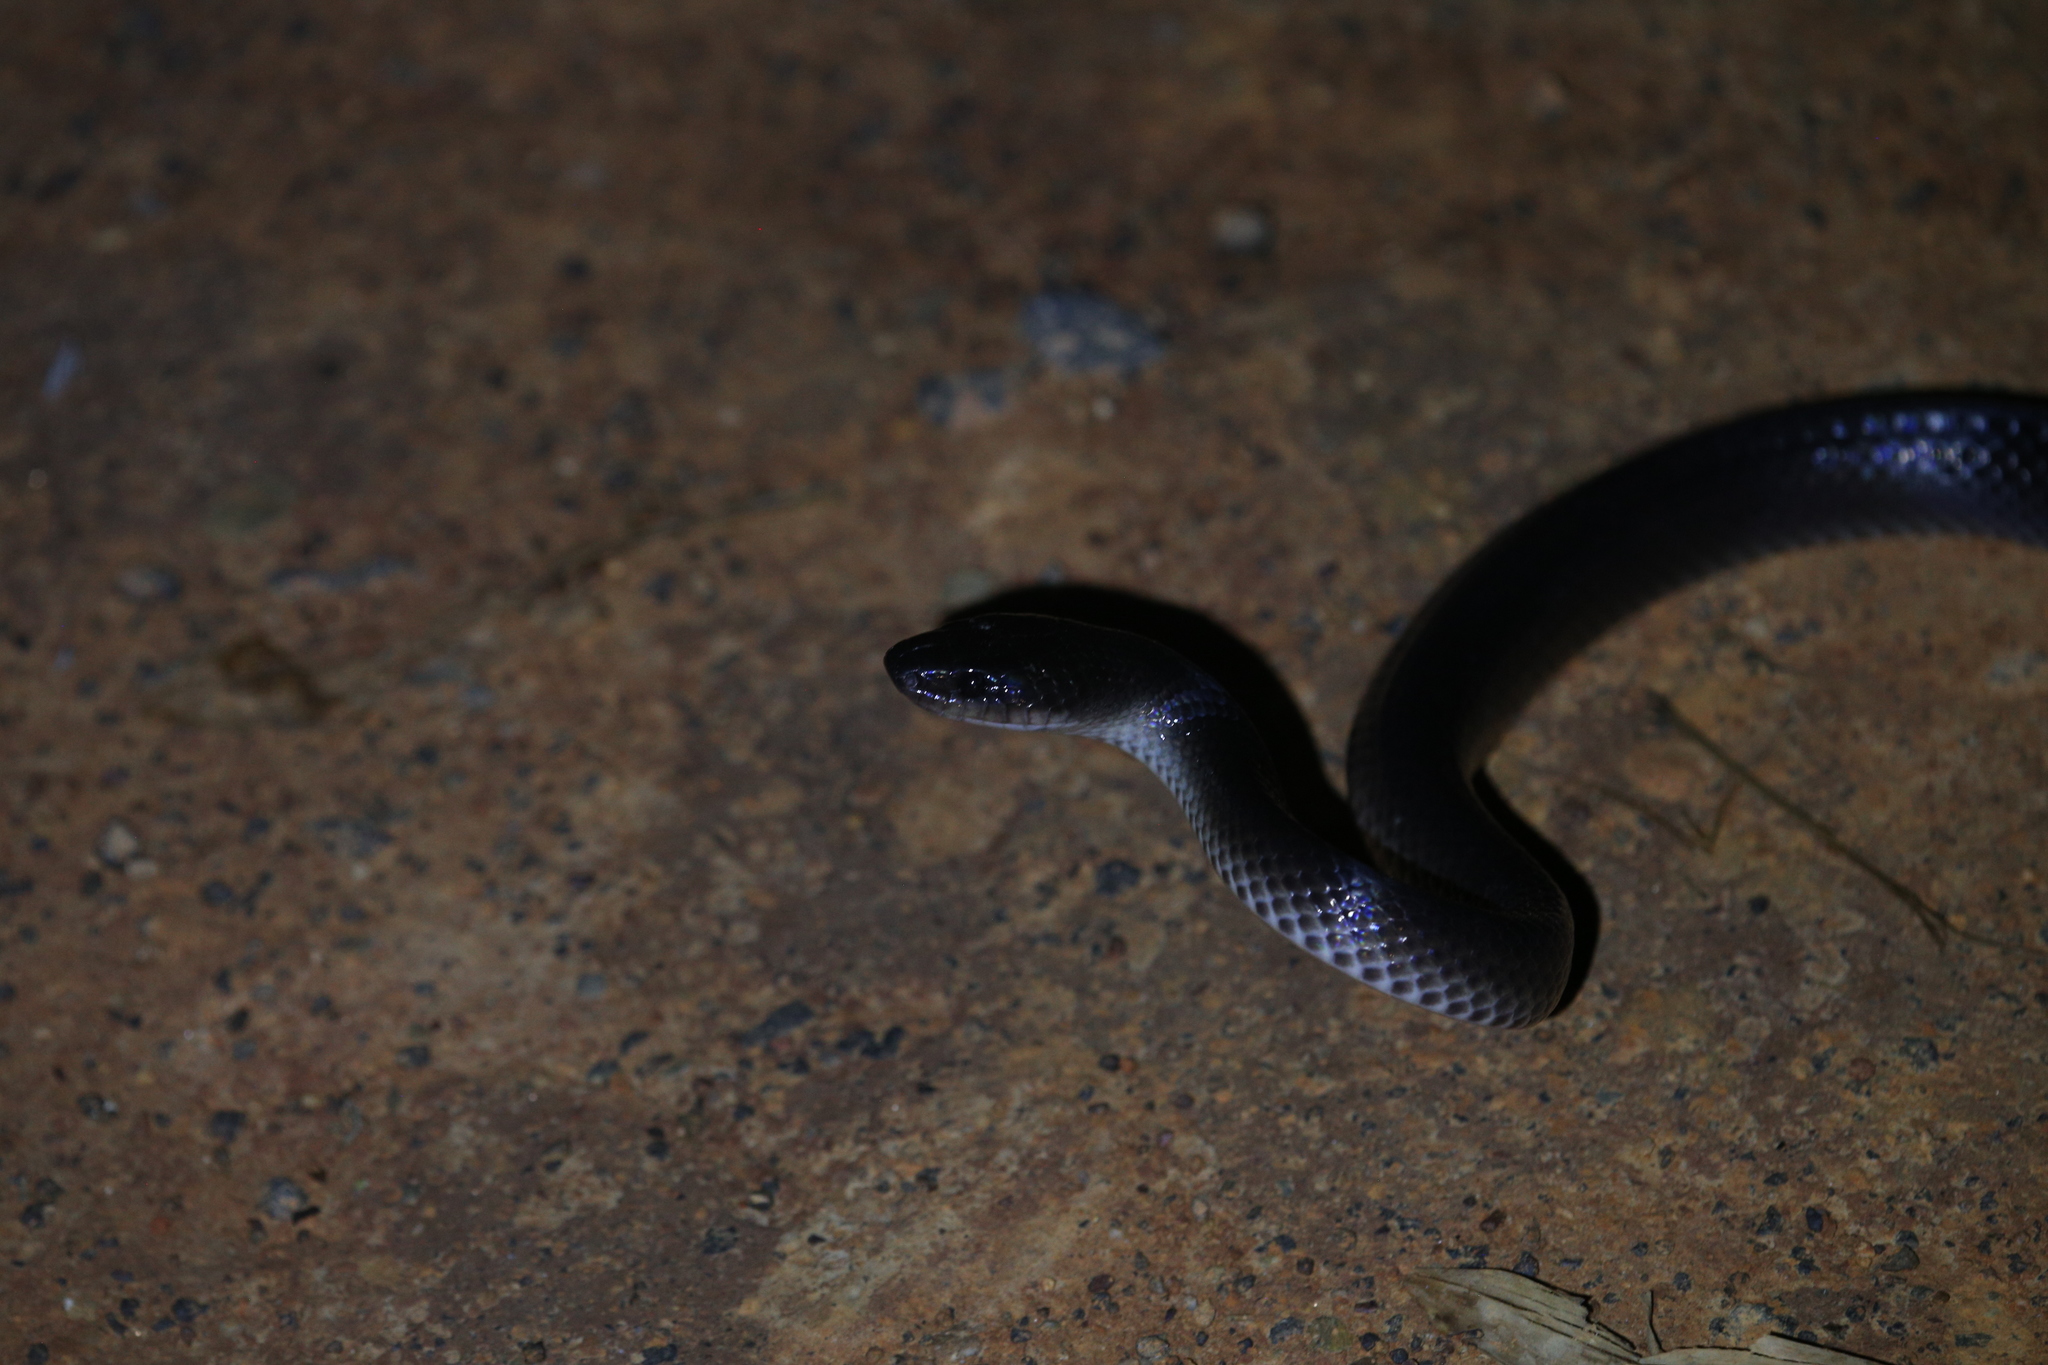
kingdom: Animalia
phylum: Chordata
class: Squamata
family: Colubridae
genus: Stegonotus
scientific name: Stegonotus australis
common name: Australian groundsnake
